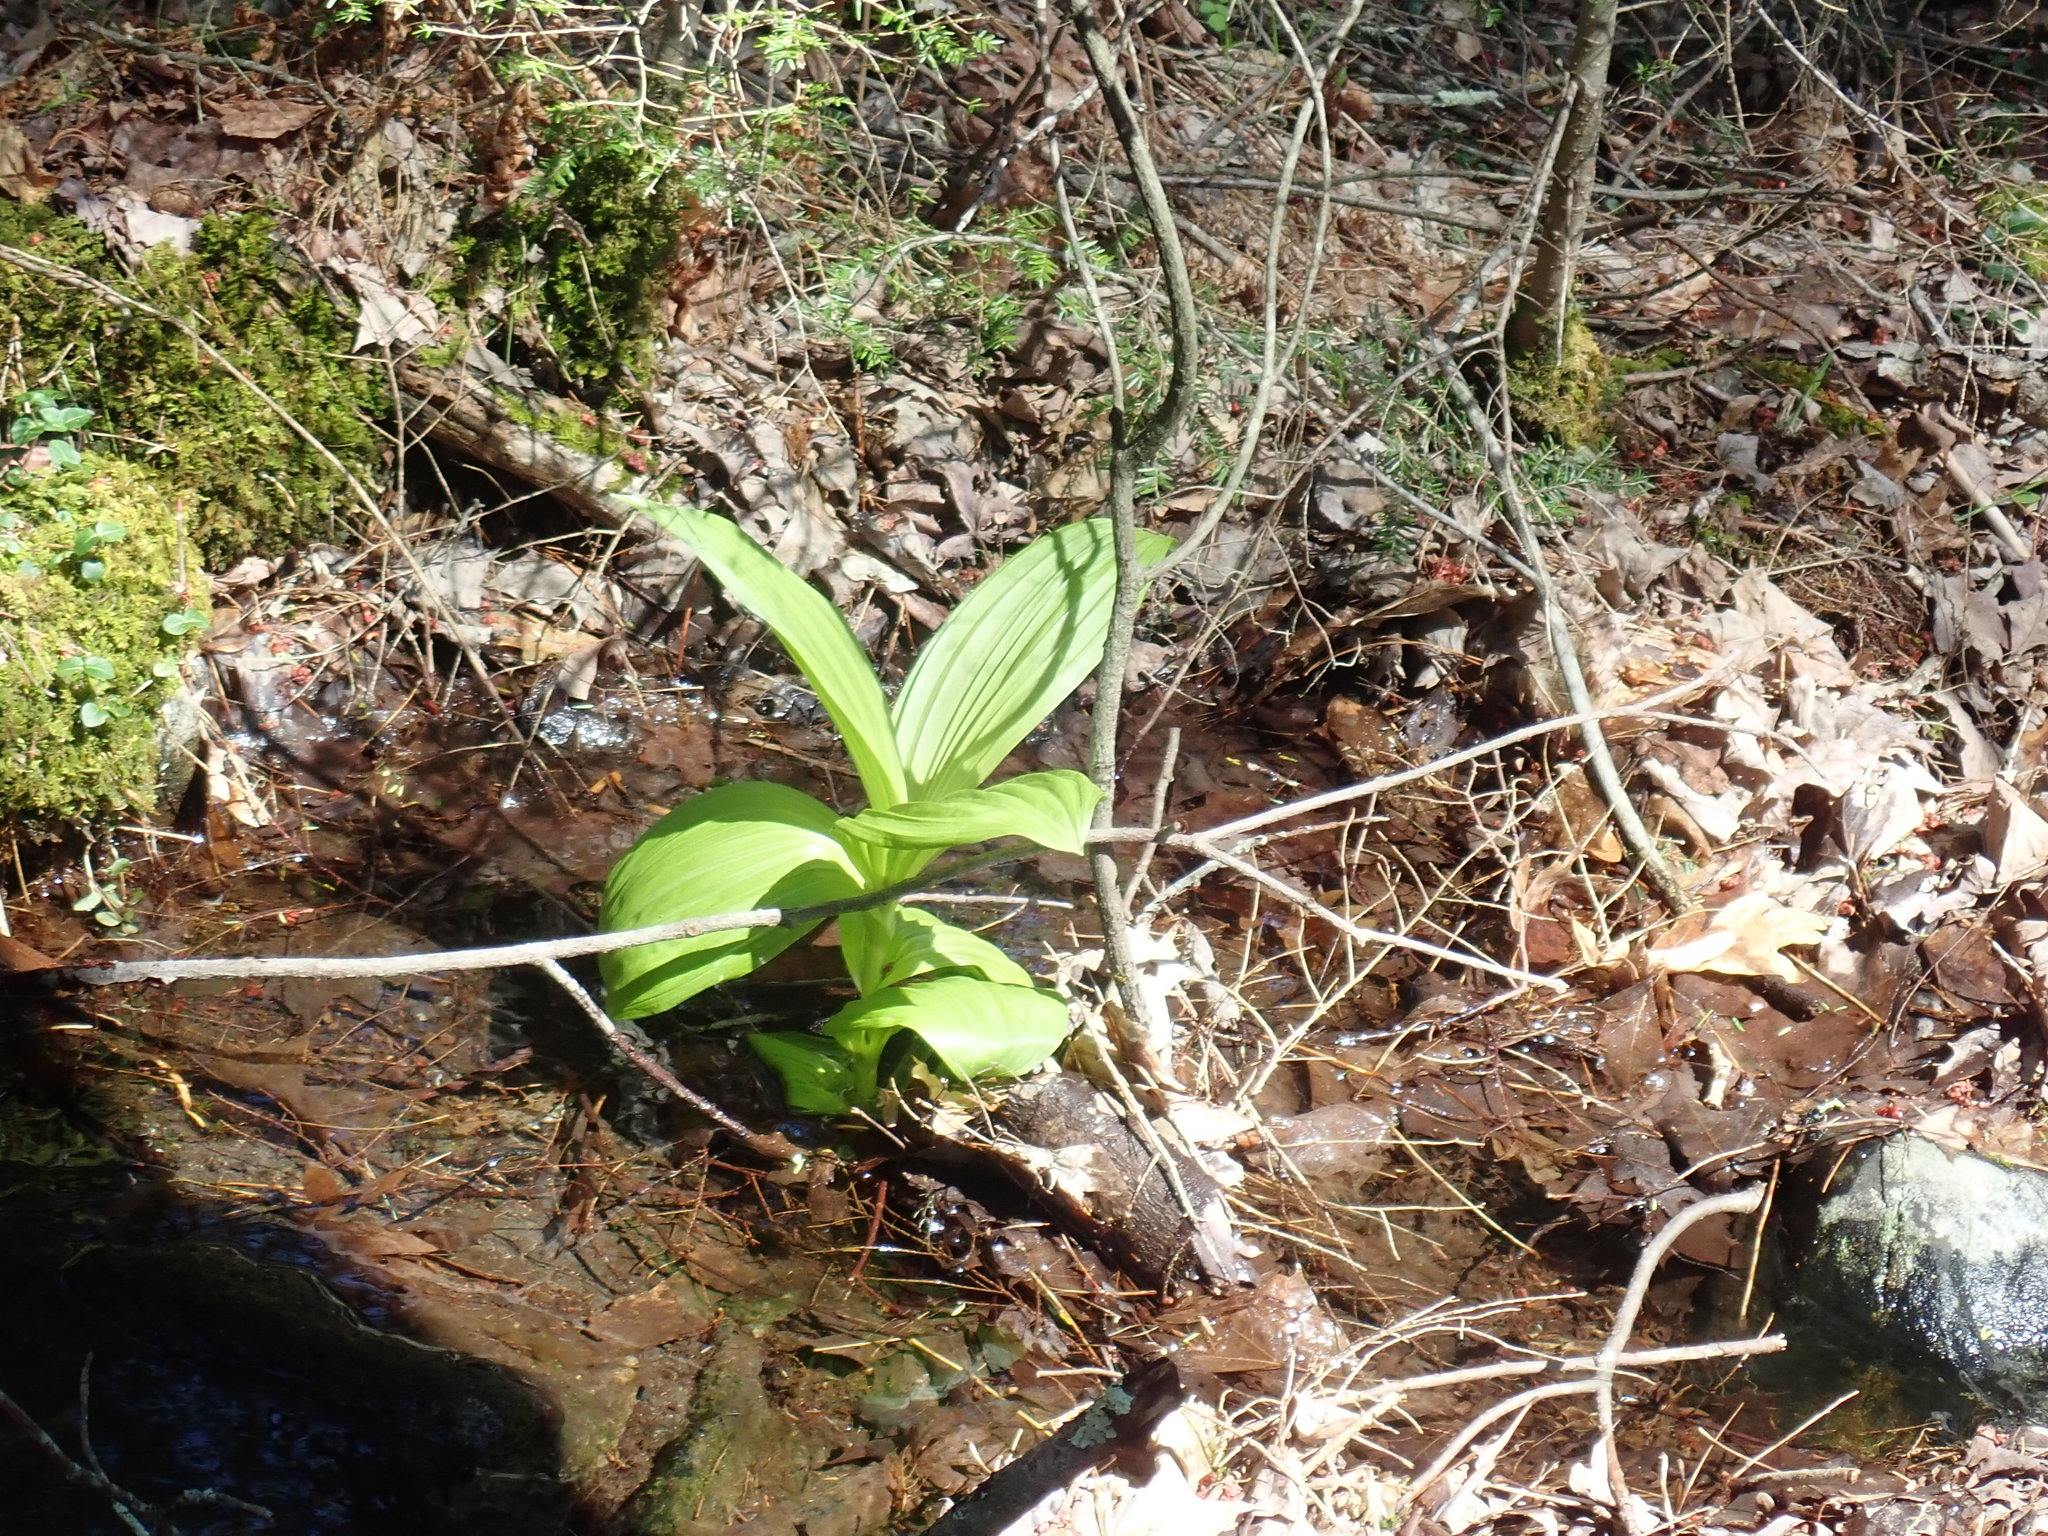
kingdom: Plantae
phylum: Tracheophyta
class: Liliopsida
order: Liliales
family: Melanthiaceae
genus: Veratrum
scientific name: Veratrum viride
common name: American false hellebore
